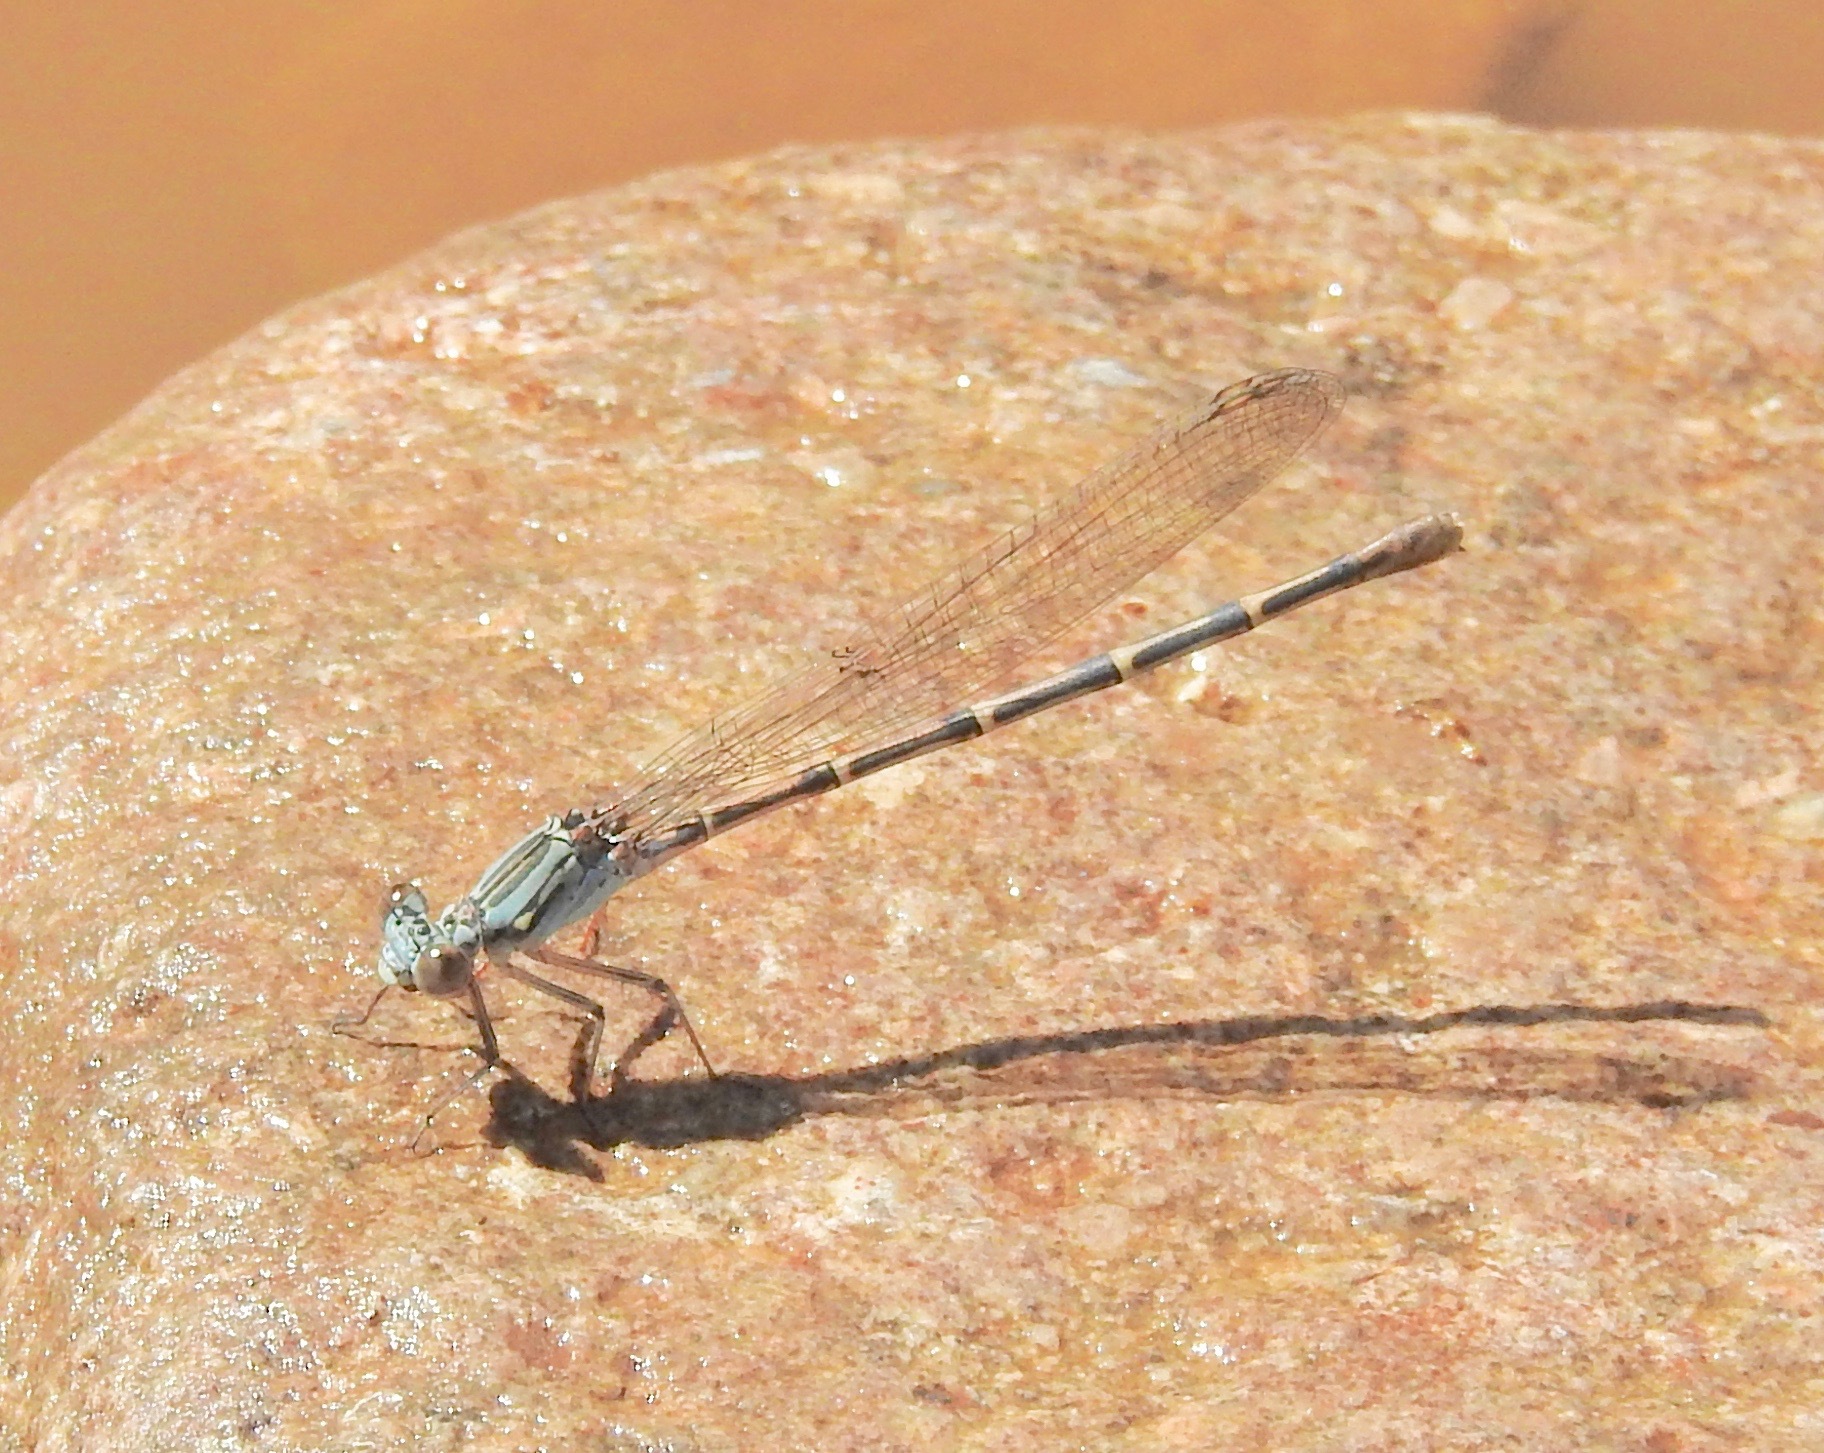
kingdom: Animalia
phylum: Arthropoda
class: Insecta
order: Odonata
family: Coenagrionidae
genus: Argia
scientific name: Argia lugens
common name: Sooty dancer
